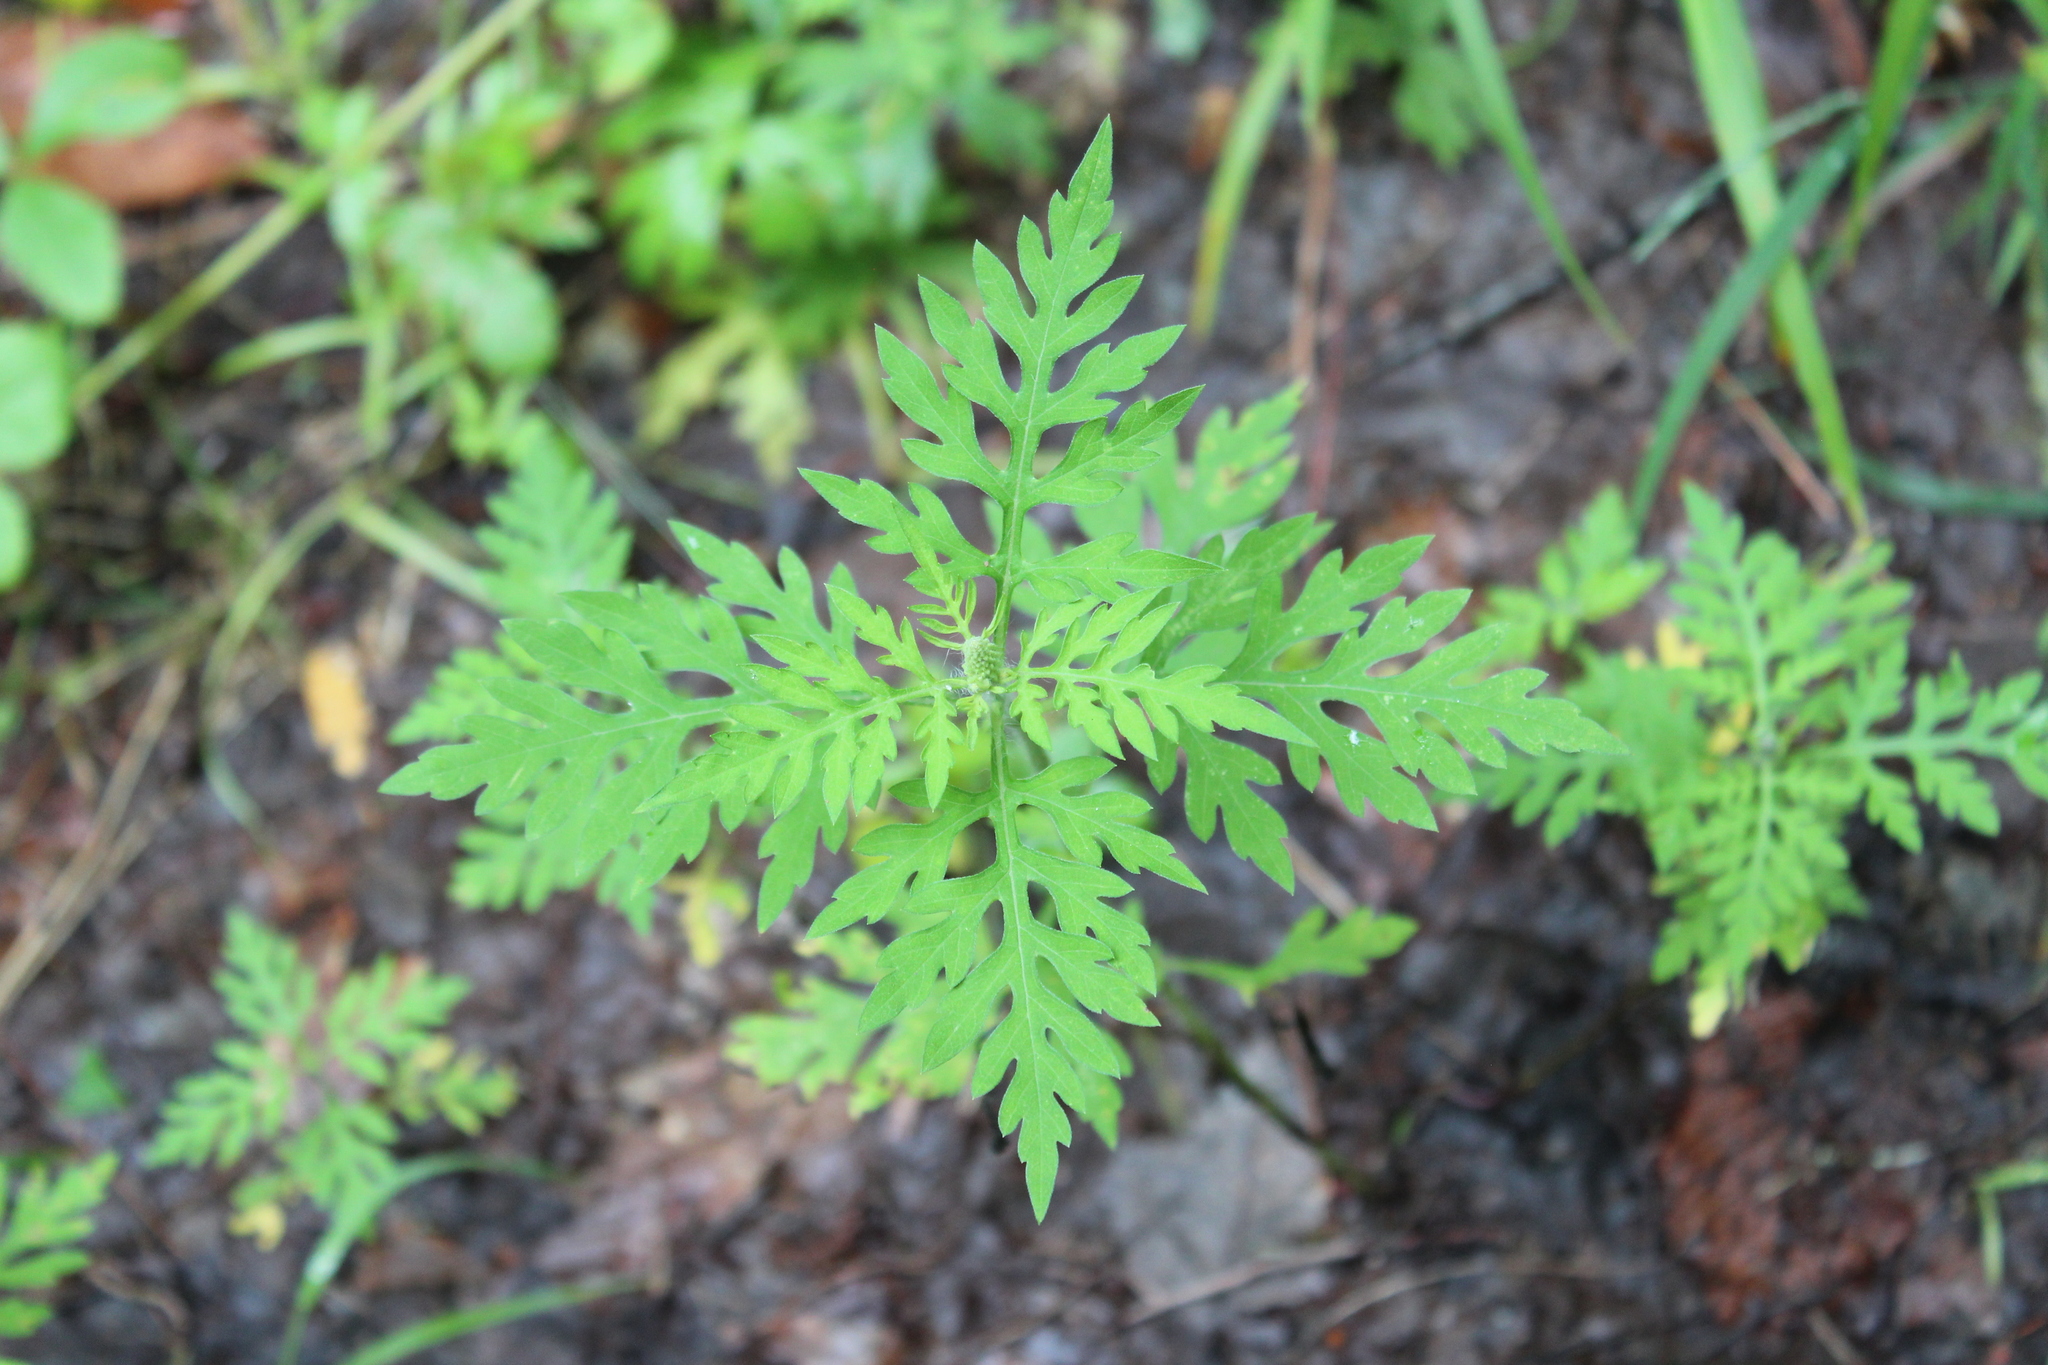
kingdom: Plantae
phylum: Tracheophyta
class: Magnoliopsida
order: Asterales
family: Asteraceae
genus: Ambrosia
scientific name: Ambrosia artemisiifolia
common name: Annual ragweed
